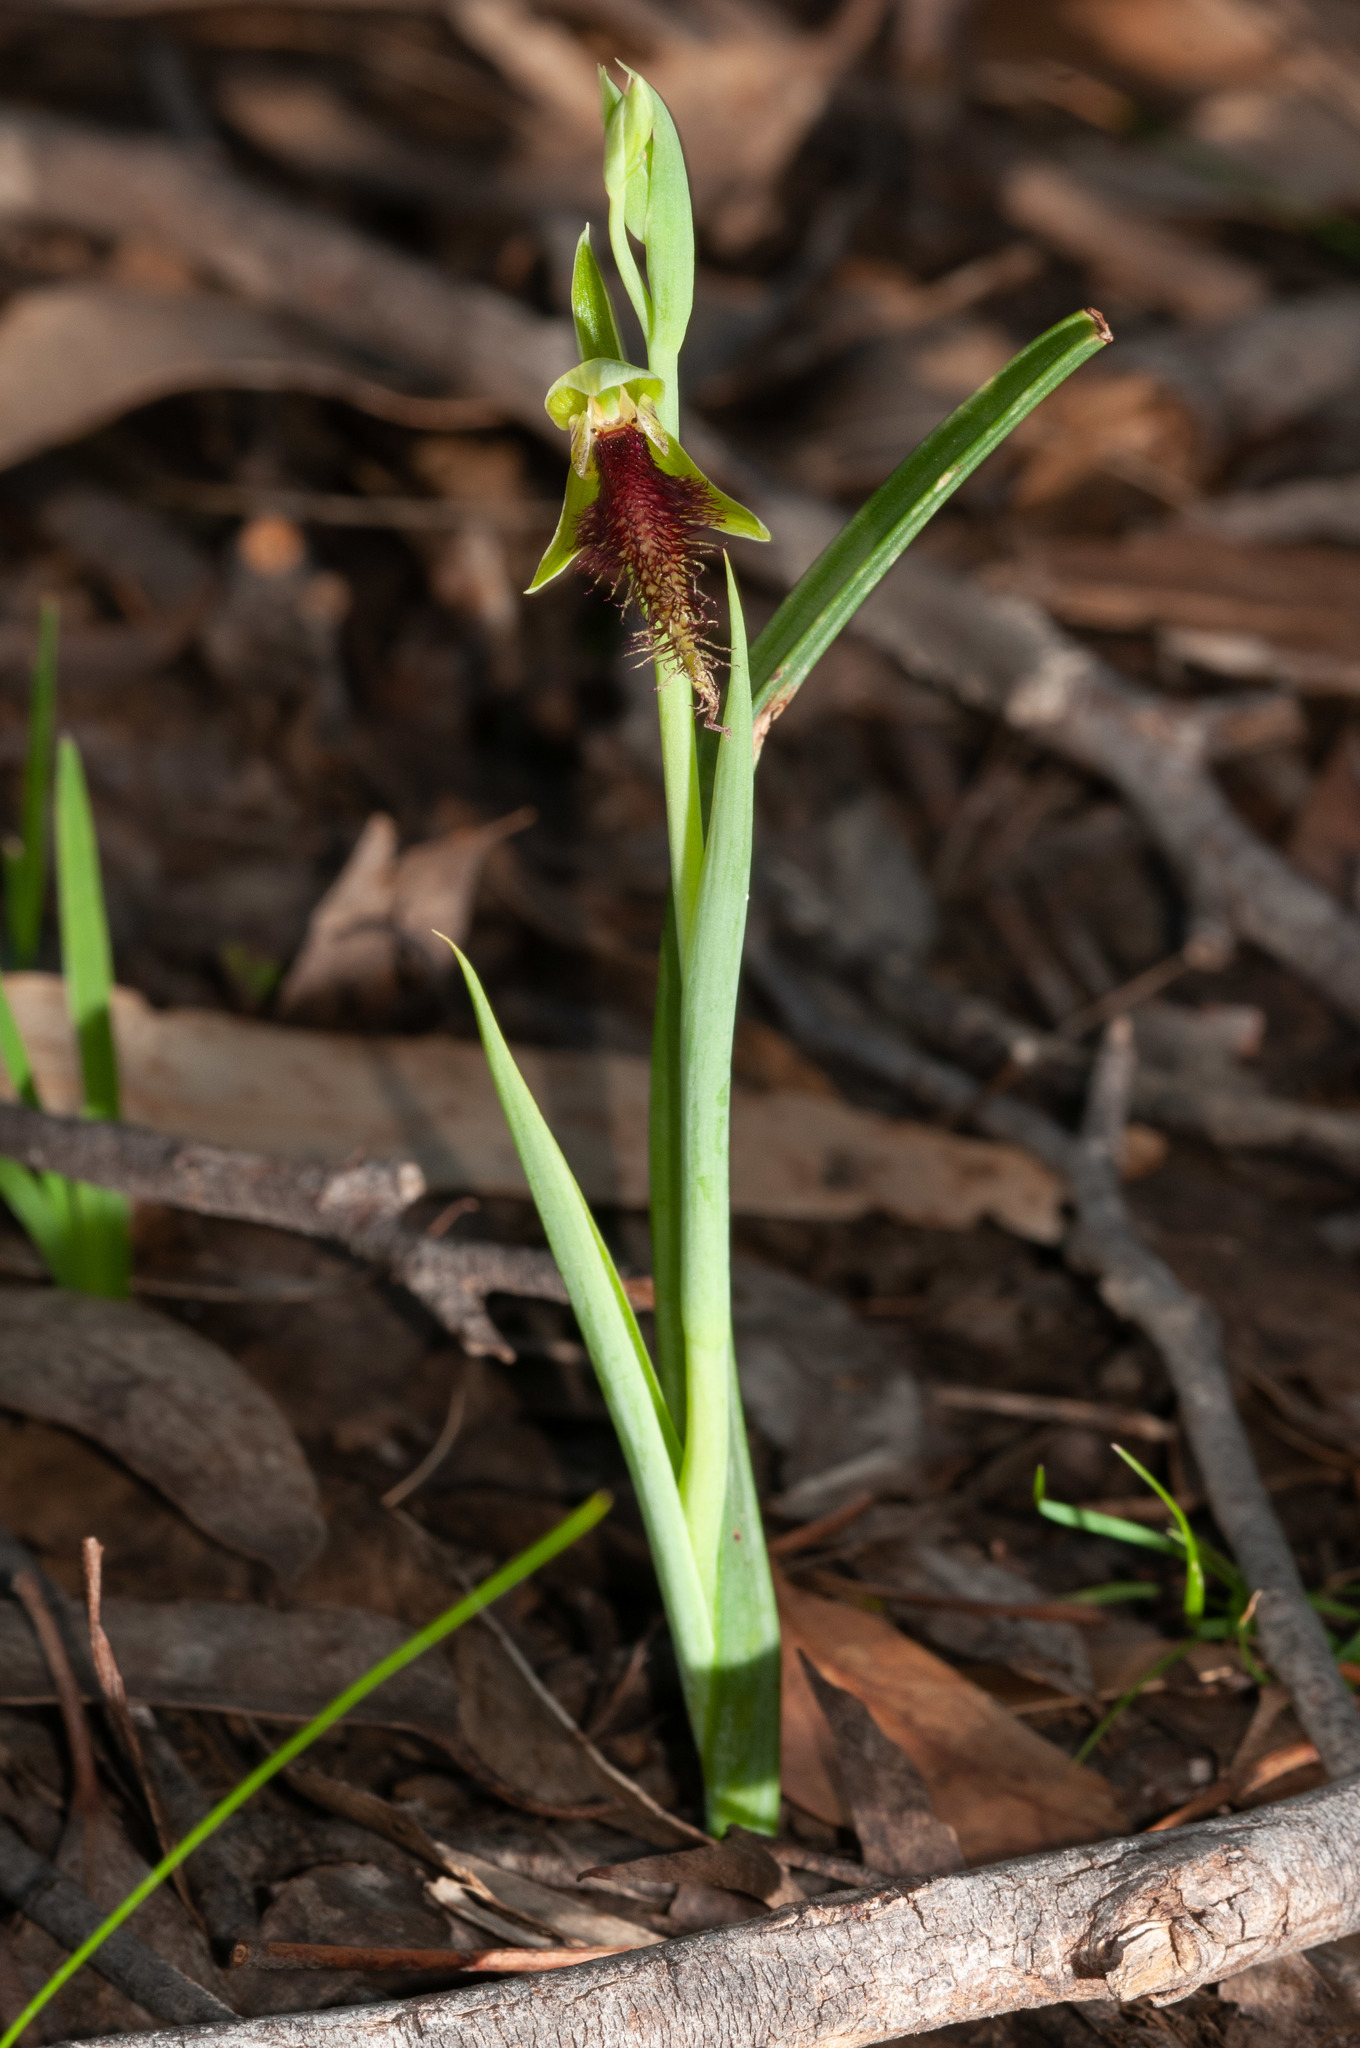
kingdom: Plantae
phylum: Tracheophyta
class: Liliopsida
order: Asparagales
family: Orchidaceae
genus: Calochilus
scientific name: Calochilus robertsonii
